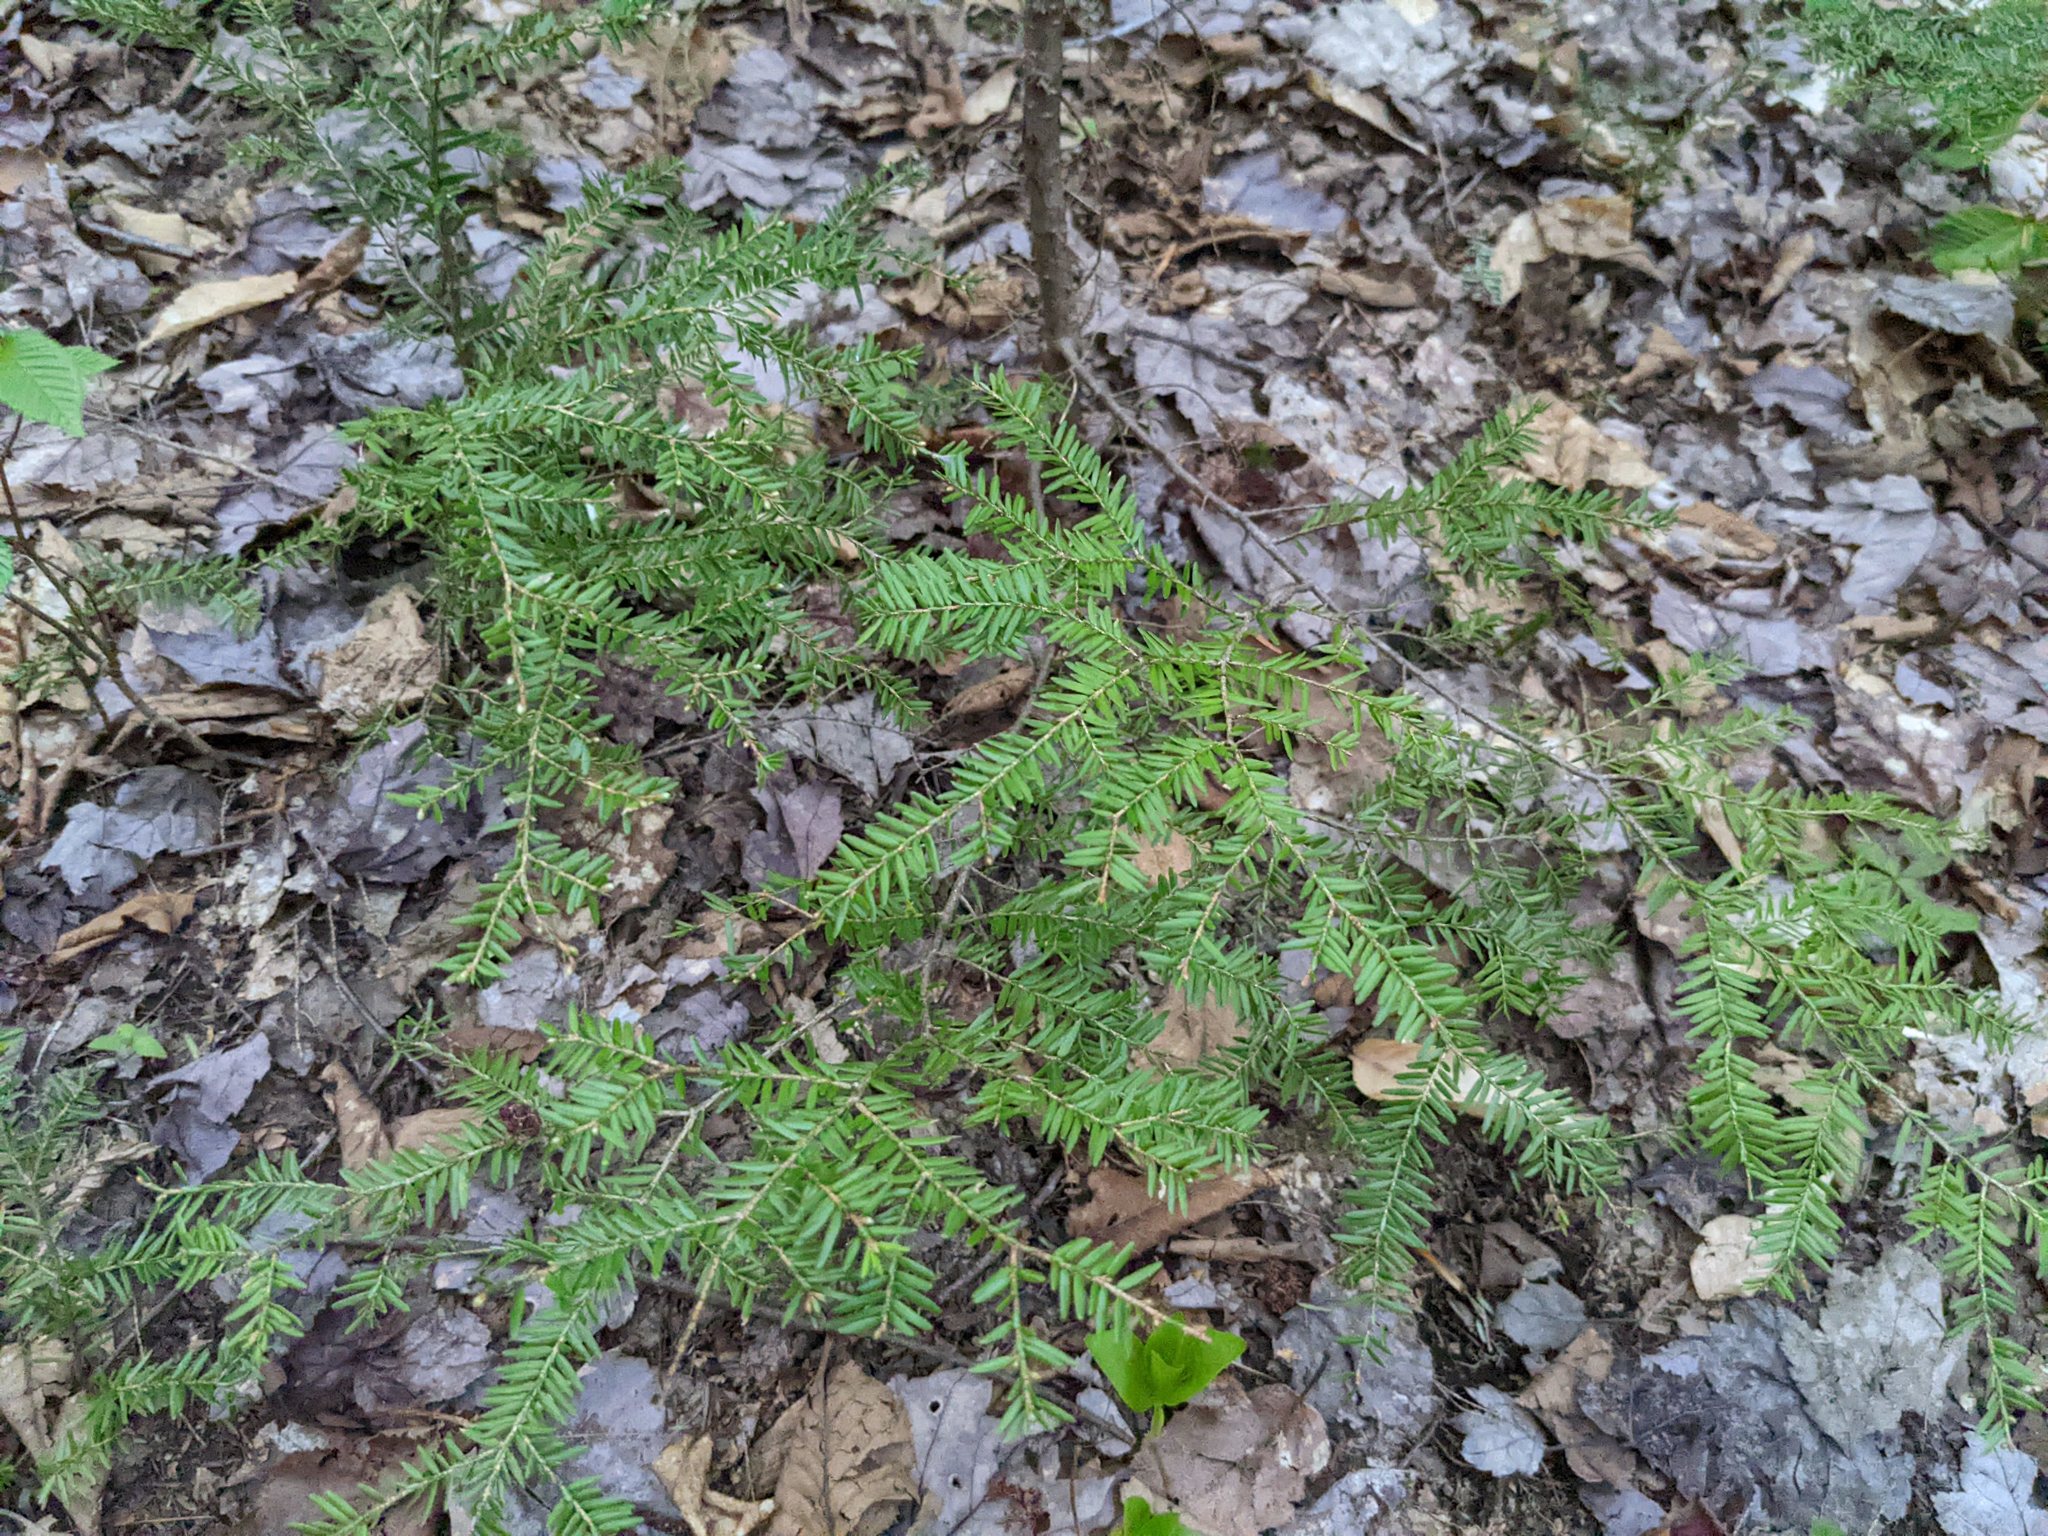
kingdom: Plantae
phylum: Tracheophyta
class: Pinopsida
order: Pinales
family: Pinaceae
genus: Tsuga
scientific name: Tsuga canadensis
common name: Eastern hemlock
